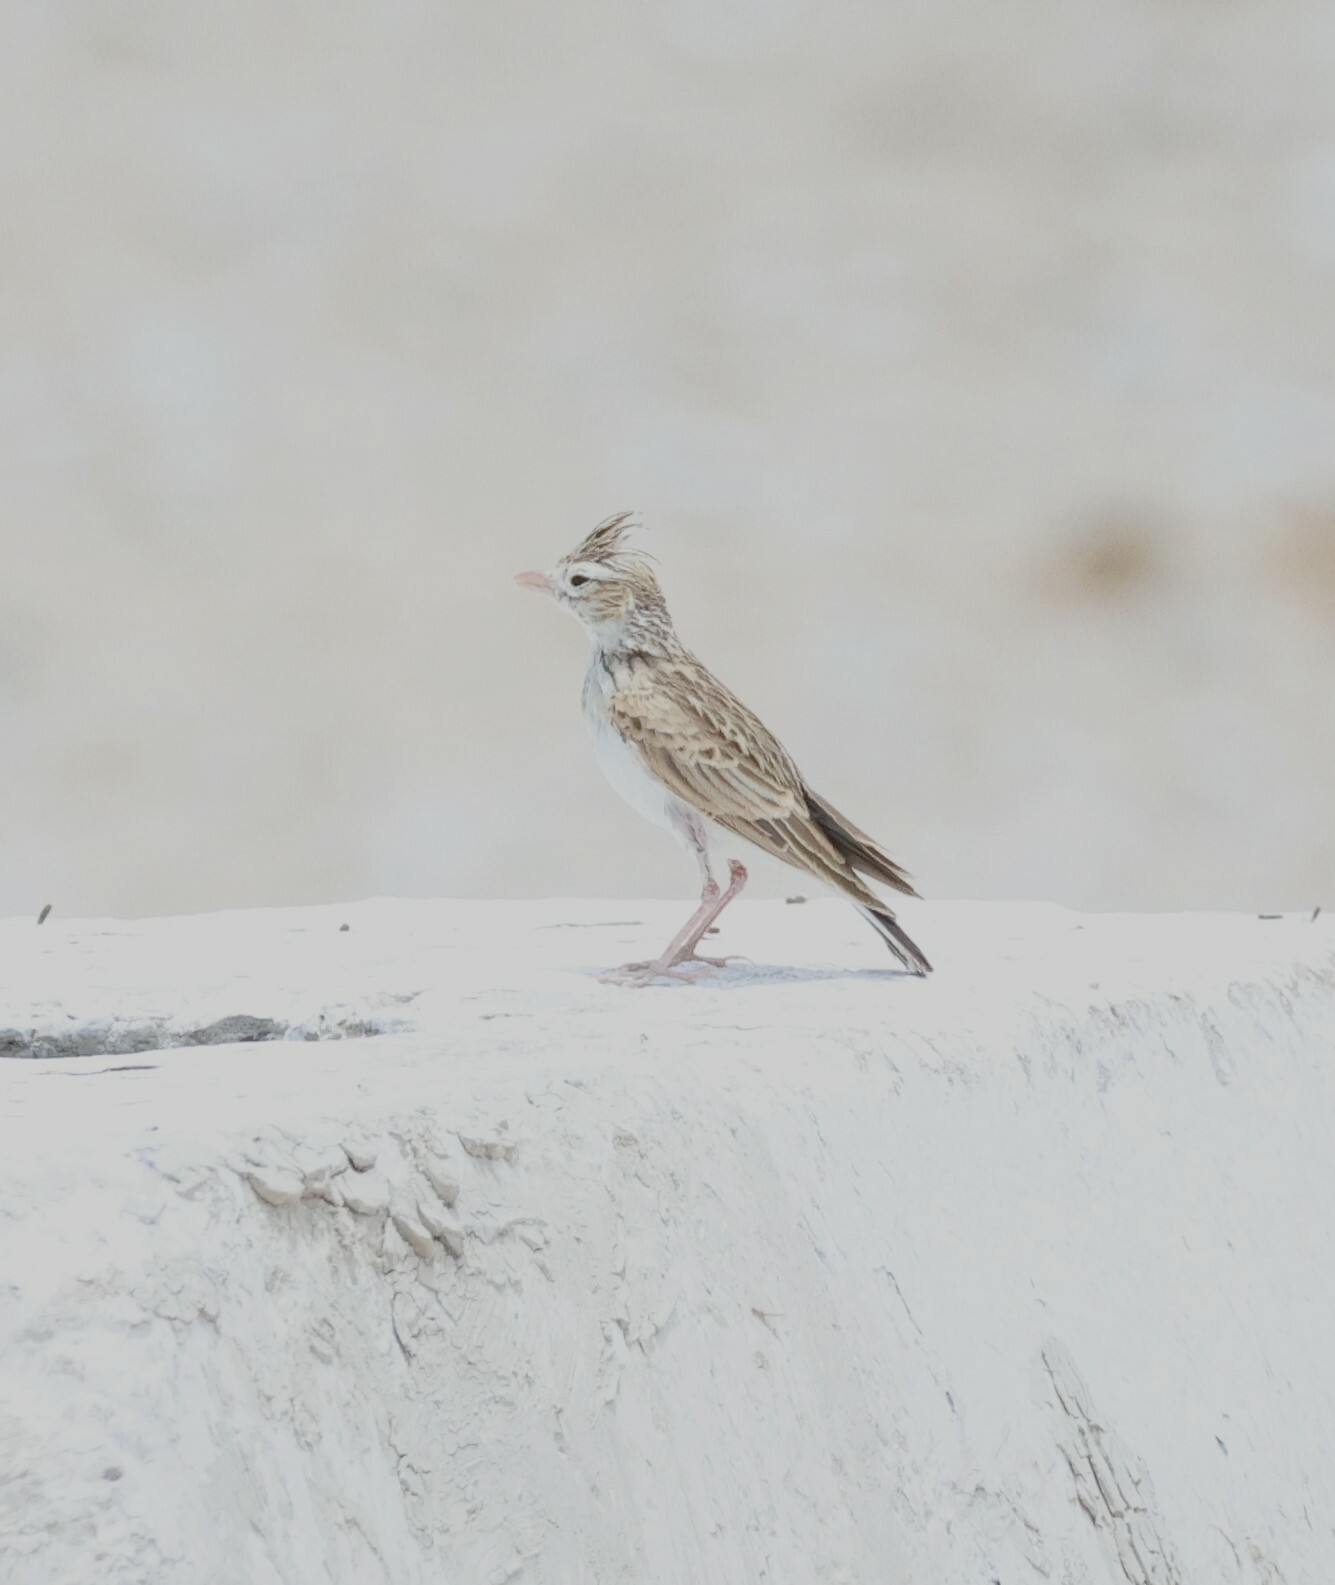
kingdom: Animalia
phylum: Chordata
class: Aves
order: Passeriformes
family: Alaudidae
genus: Spizocorys
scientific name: Spizocorys starki
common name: Stark's lark
